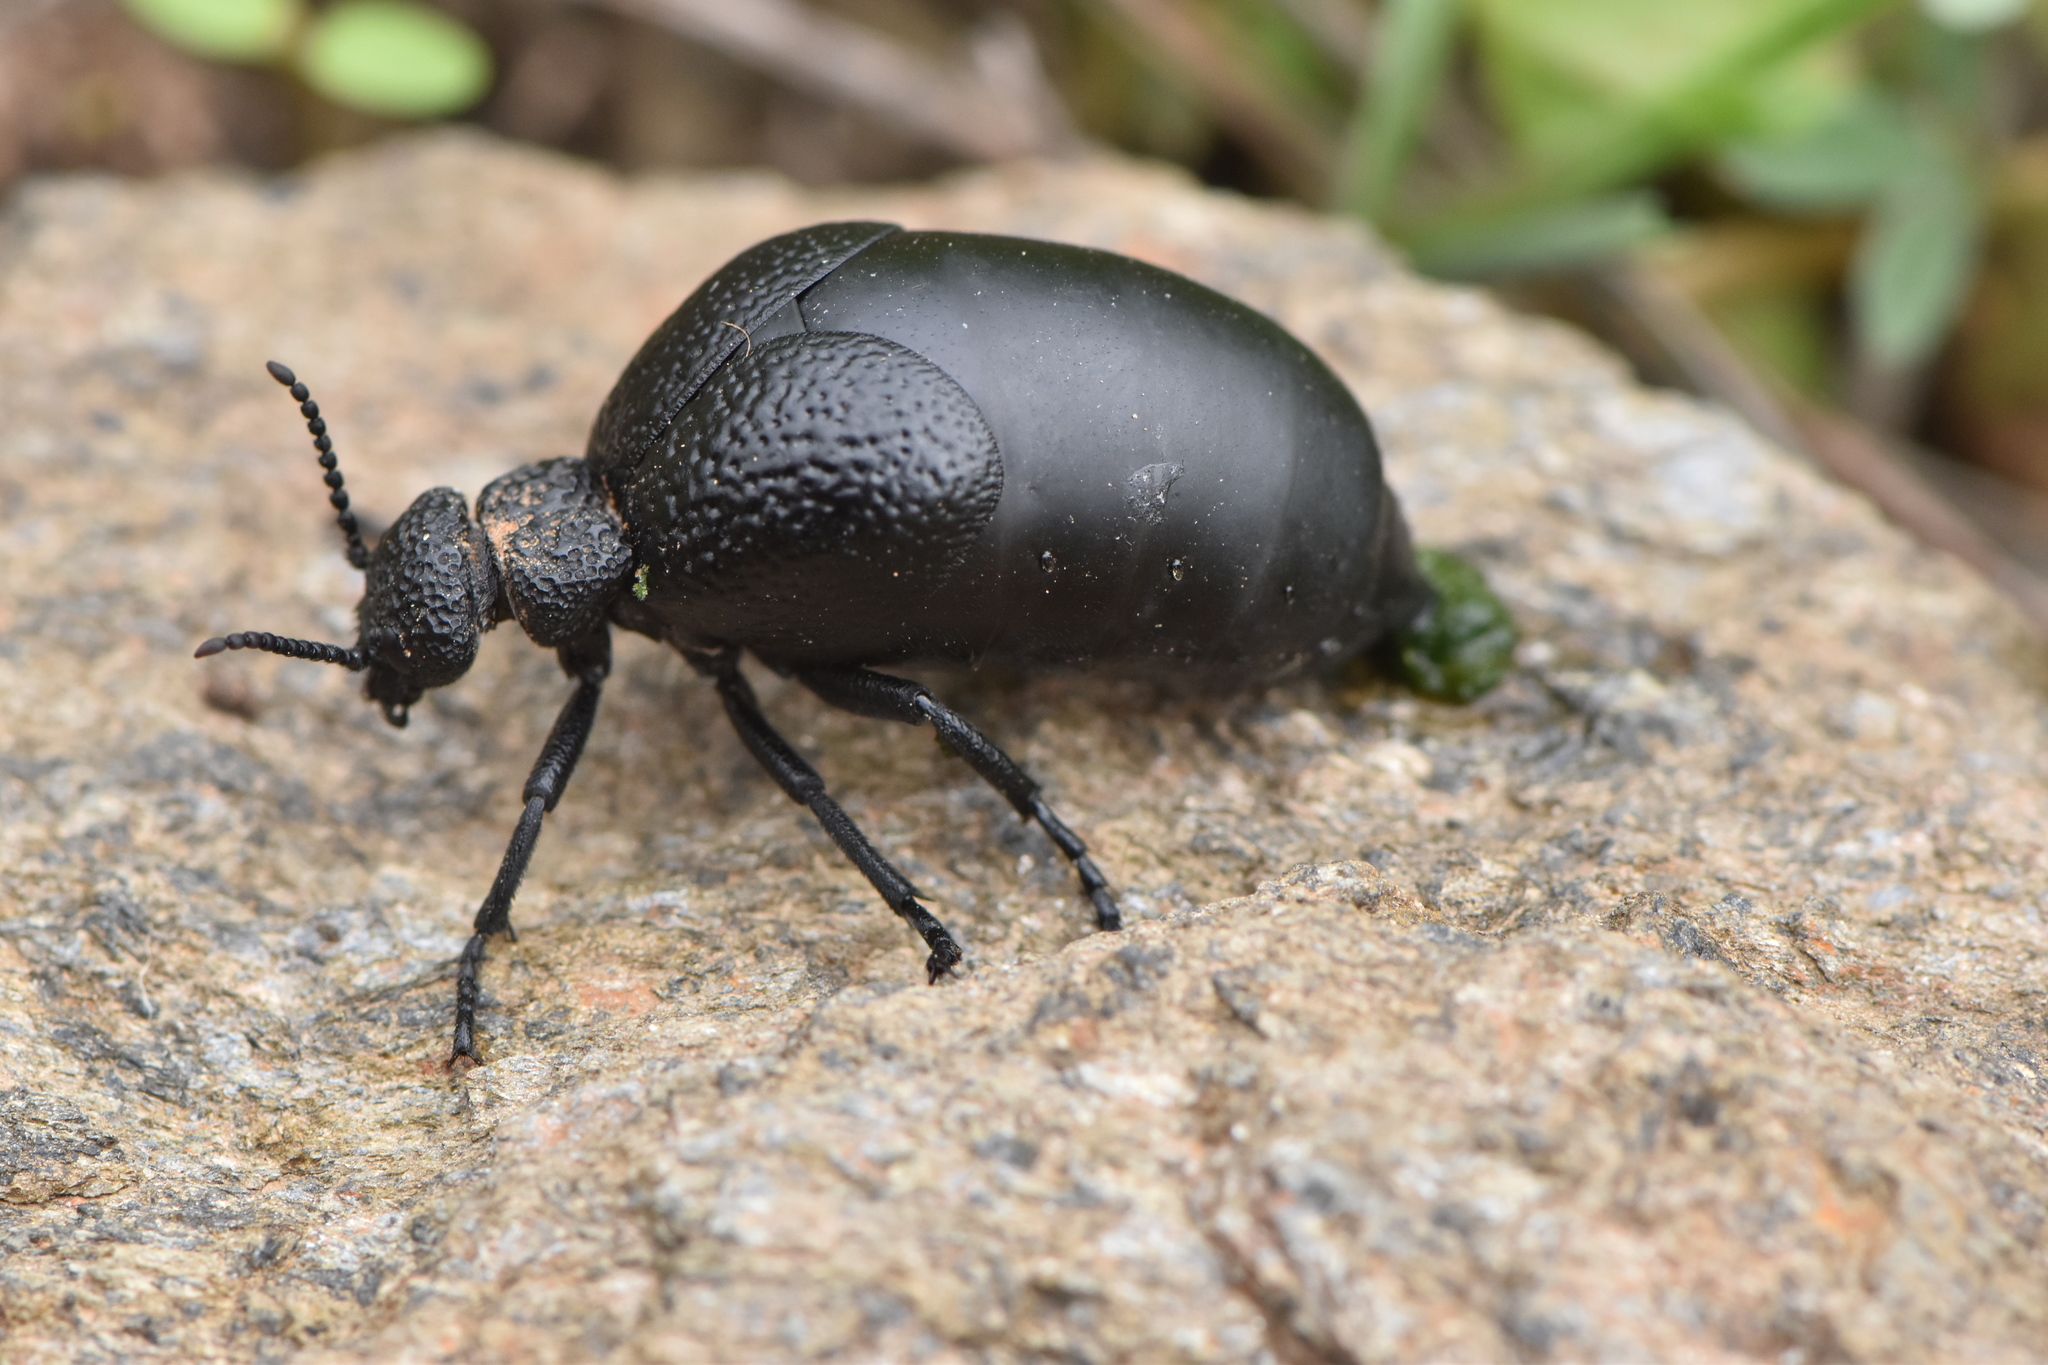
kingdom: Animalia
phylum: Arthropoda
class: Insecta
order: Coleoptera
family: Meloidae
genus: Meloe
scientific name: Meloe cicatricosus
